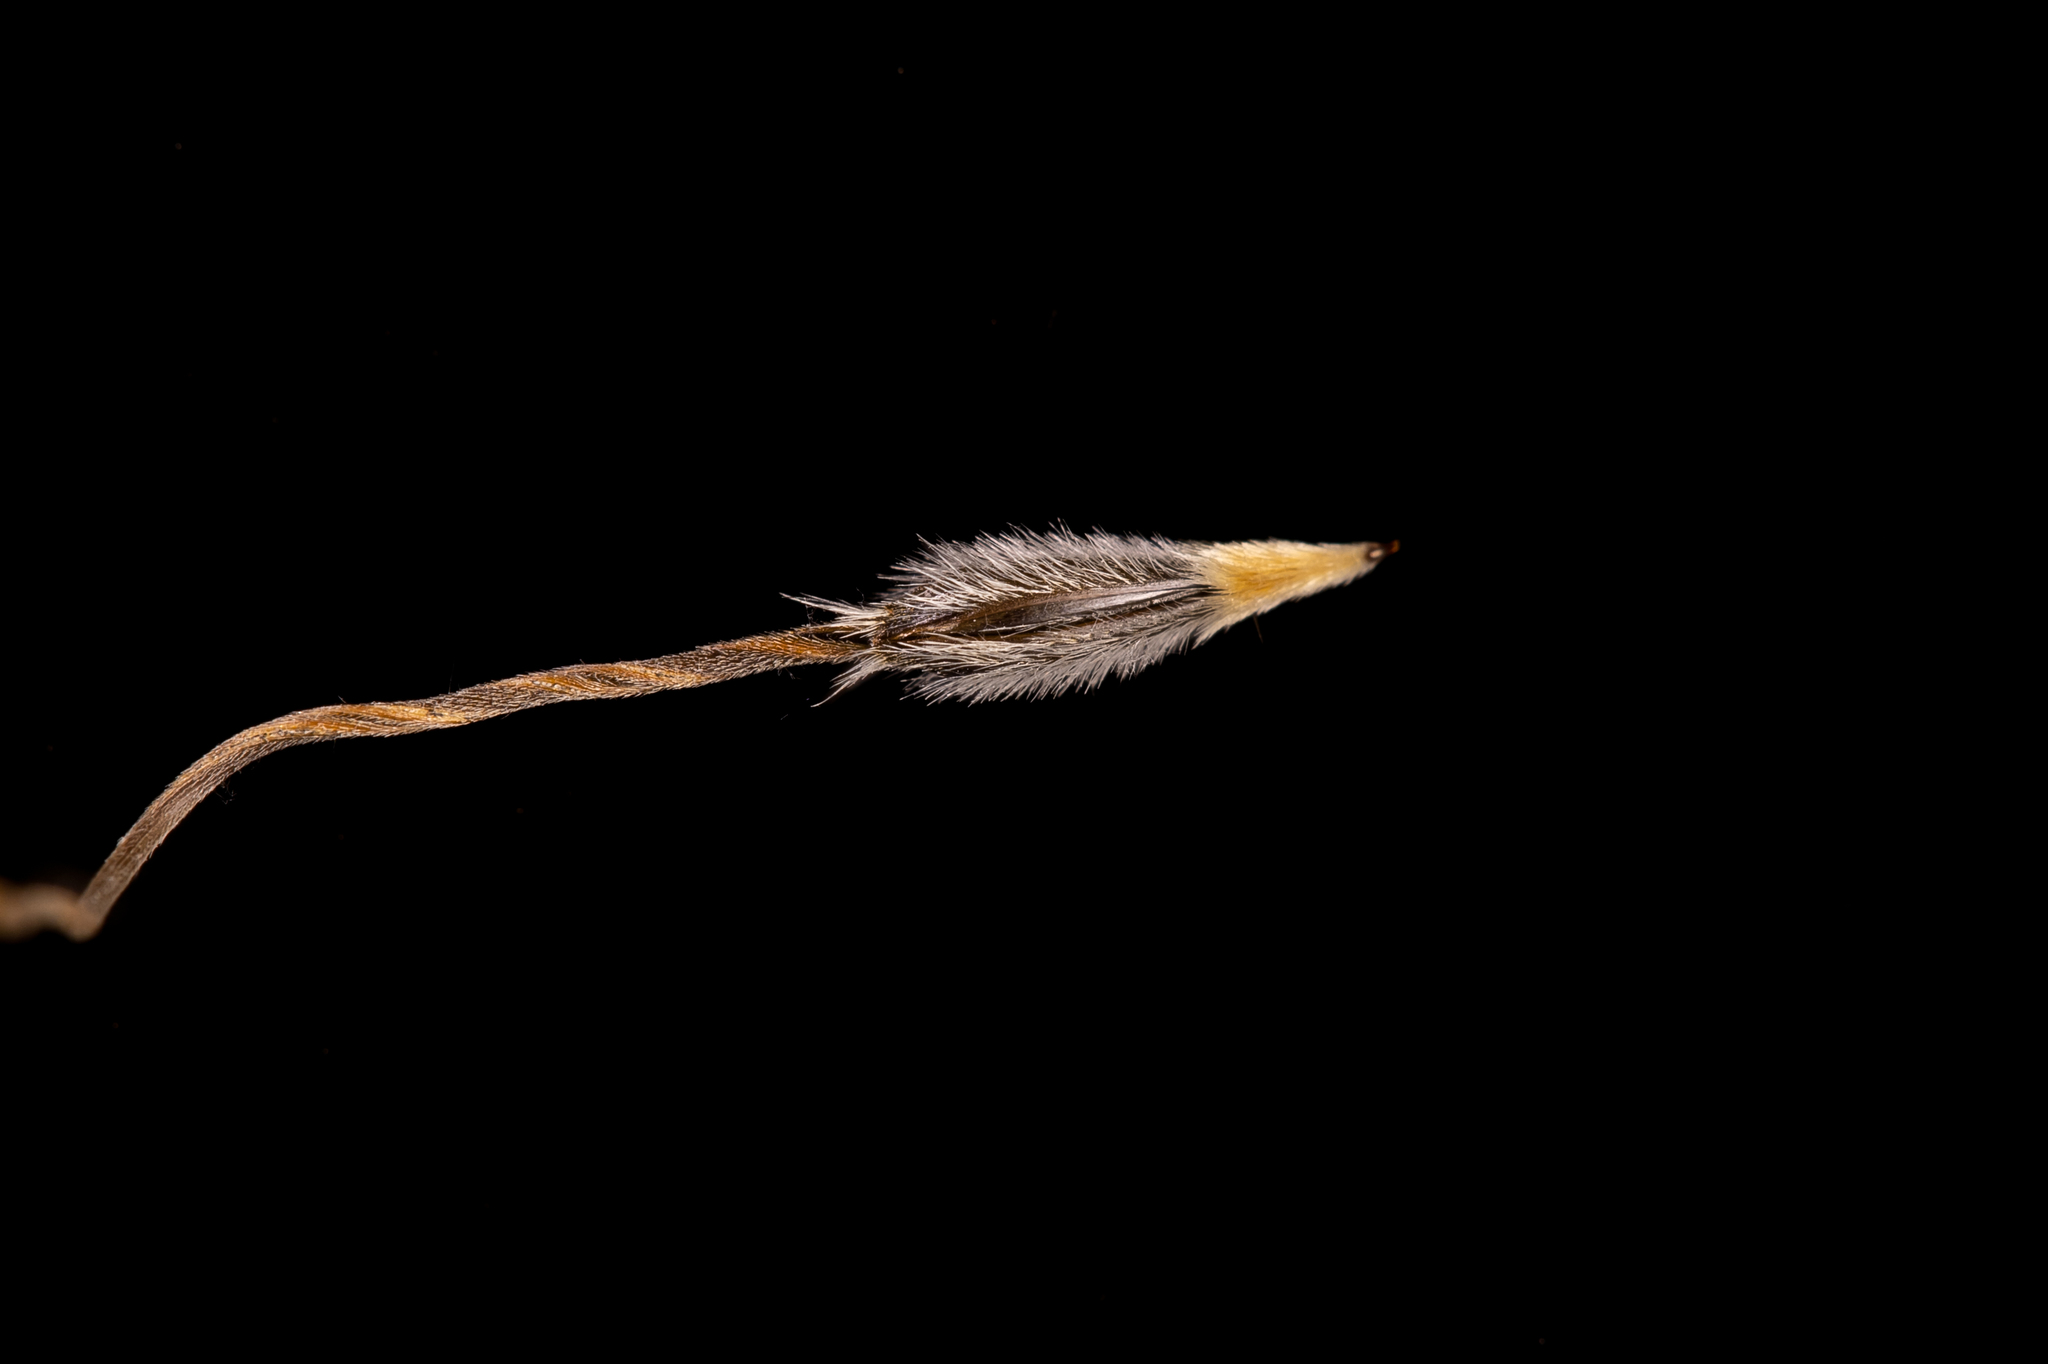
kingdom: Plantae
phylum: Tracheophyta
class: Liliopsida
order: Poales
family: Poaceae
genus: Austrostipa
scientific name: Austrostipa setacea
